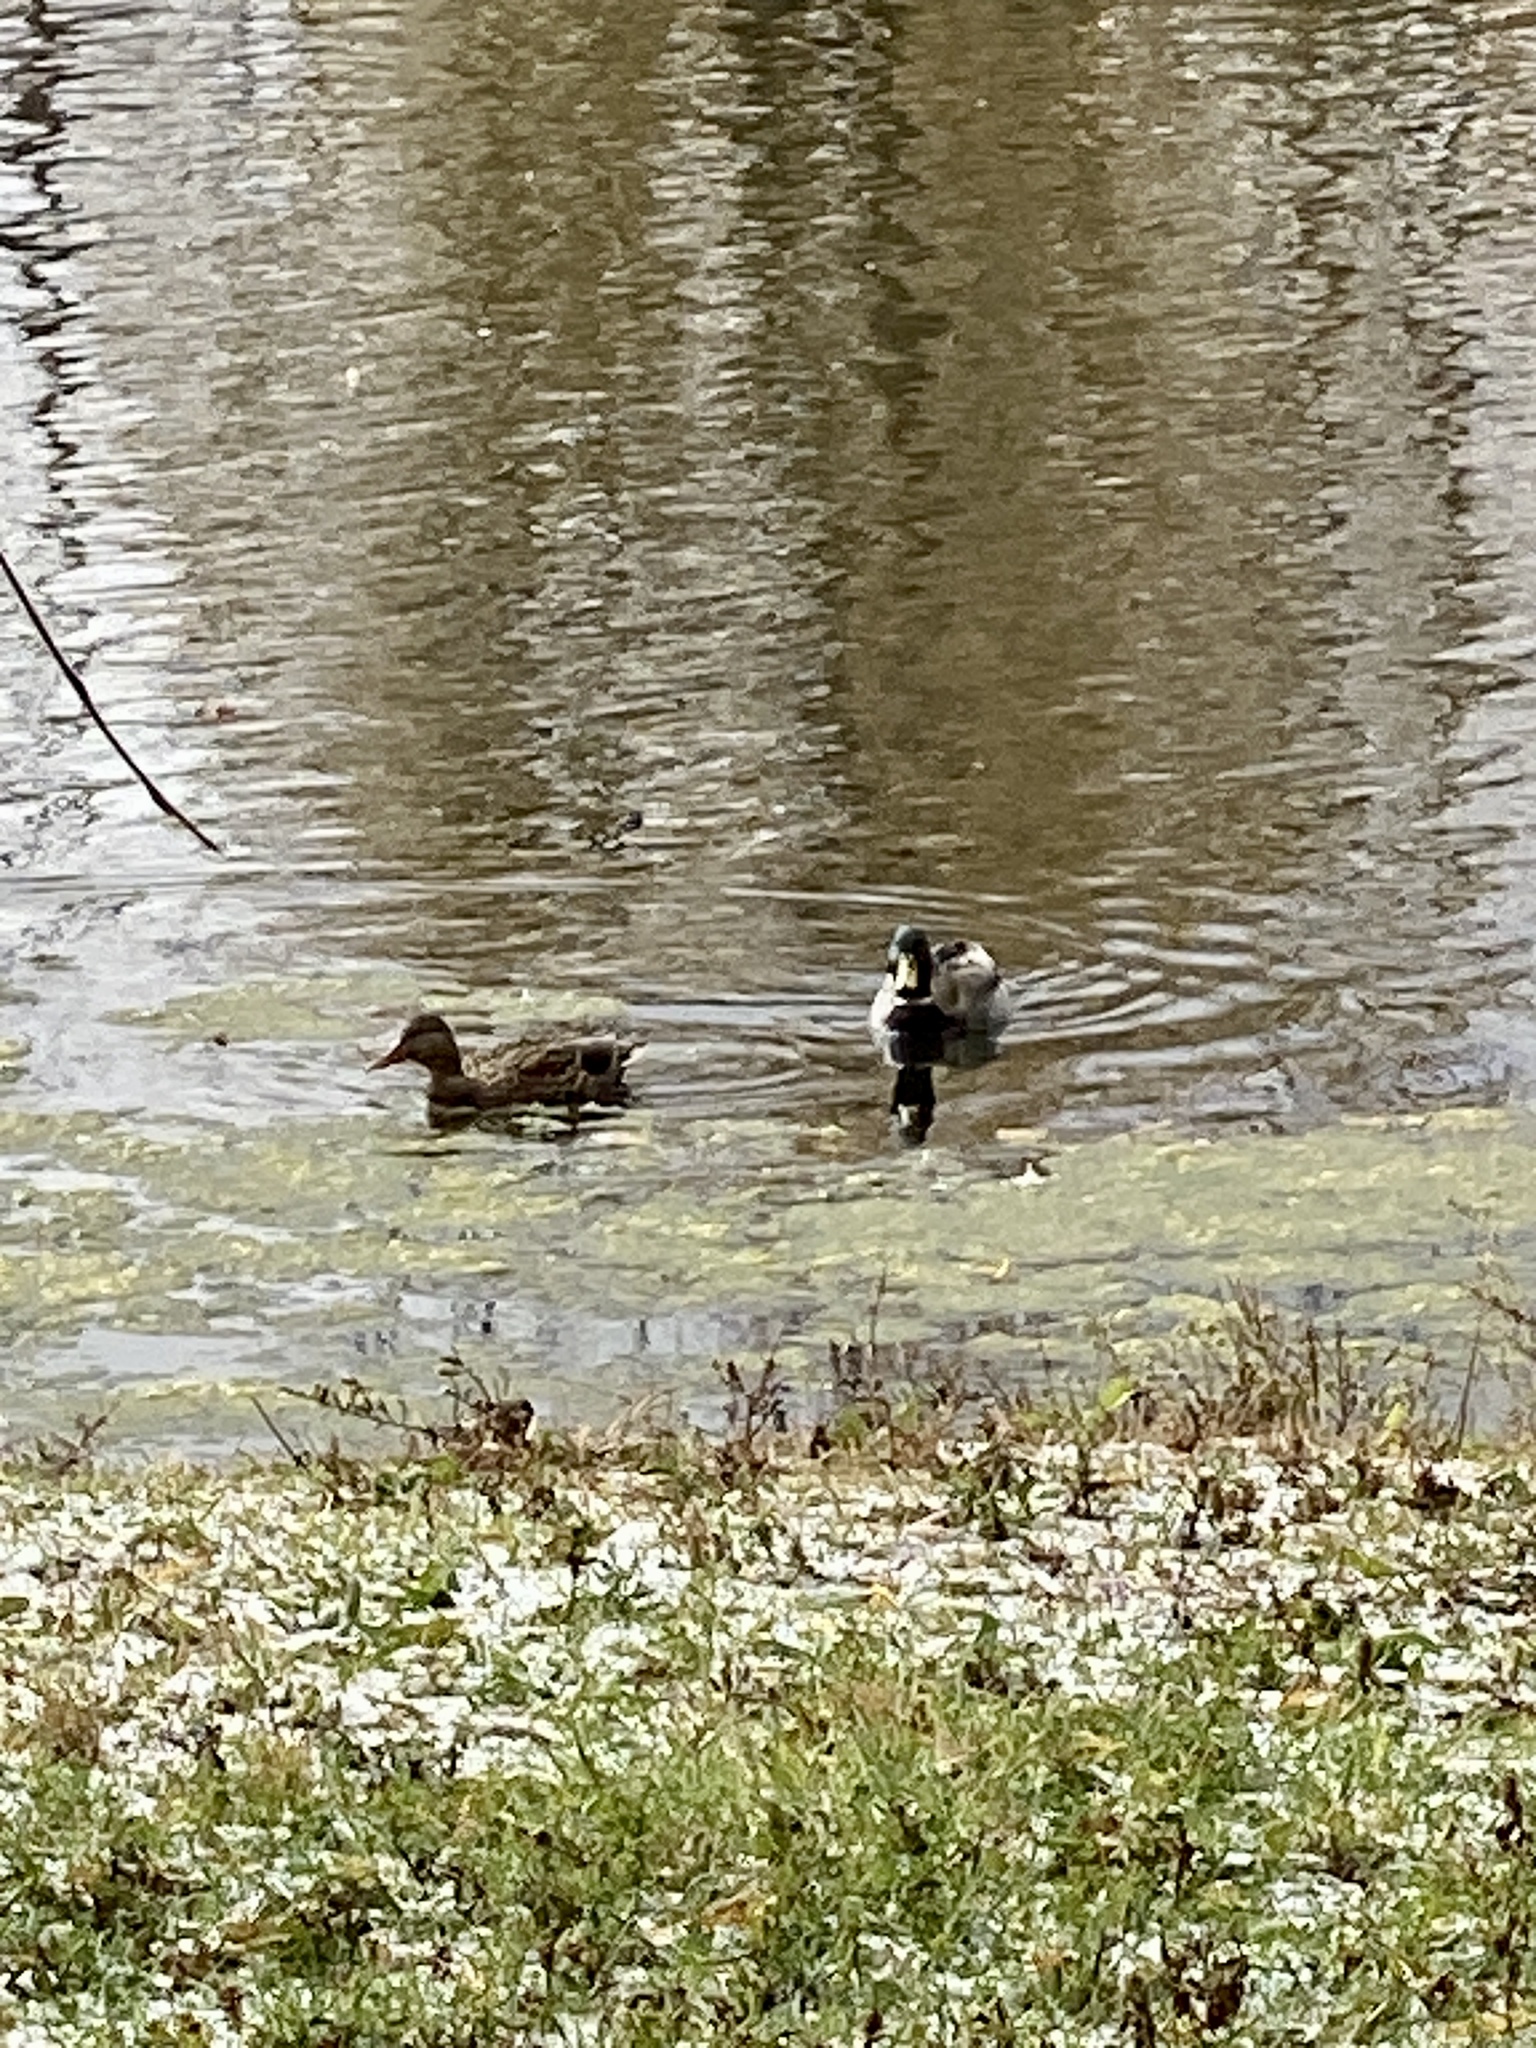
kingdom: Animalia
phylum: Chordata
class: Aves
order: Anseriformes
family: Anatidae
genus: Anas
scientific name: Anas platyrhynchos
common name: Mallard
